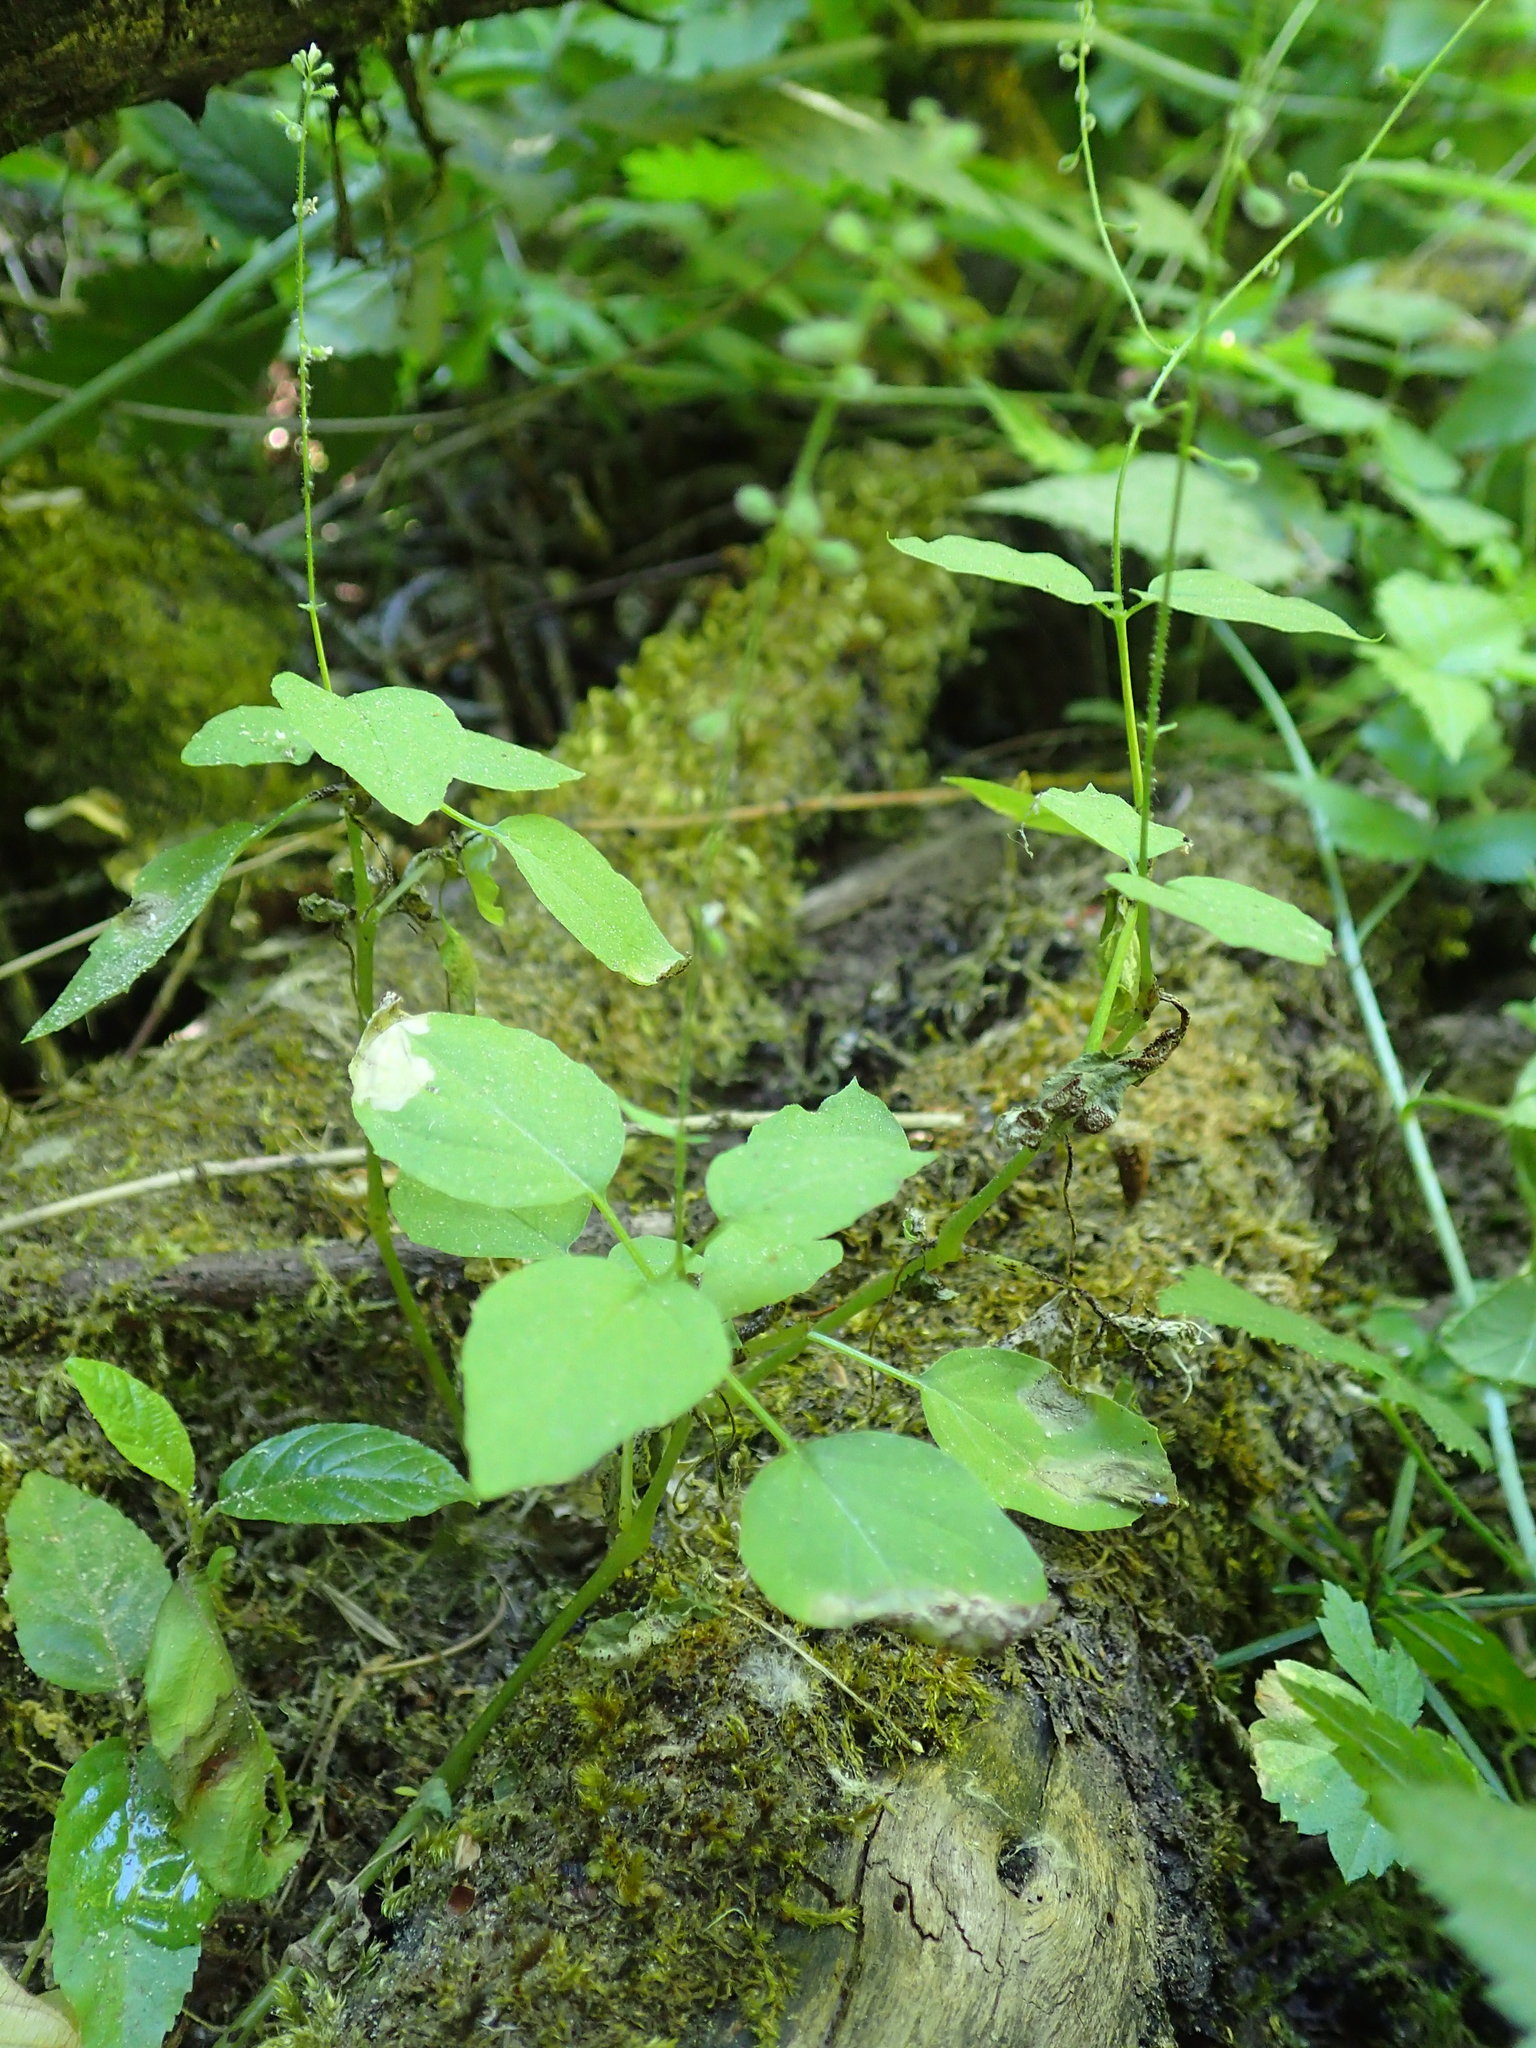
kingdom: Plantae
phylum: Tracheophyta
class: Magnoliopsida
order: Myrtales
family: Onagraceae
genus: Circaea
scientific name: Circaea alpina
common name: Alpine enchanter's-nightshade
